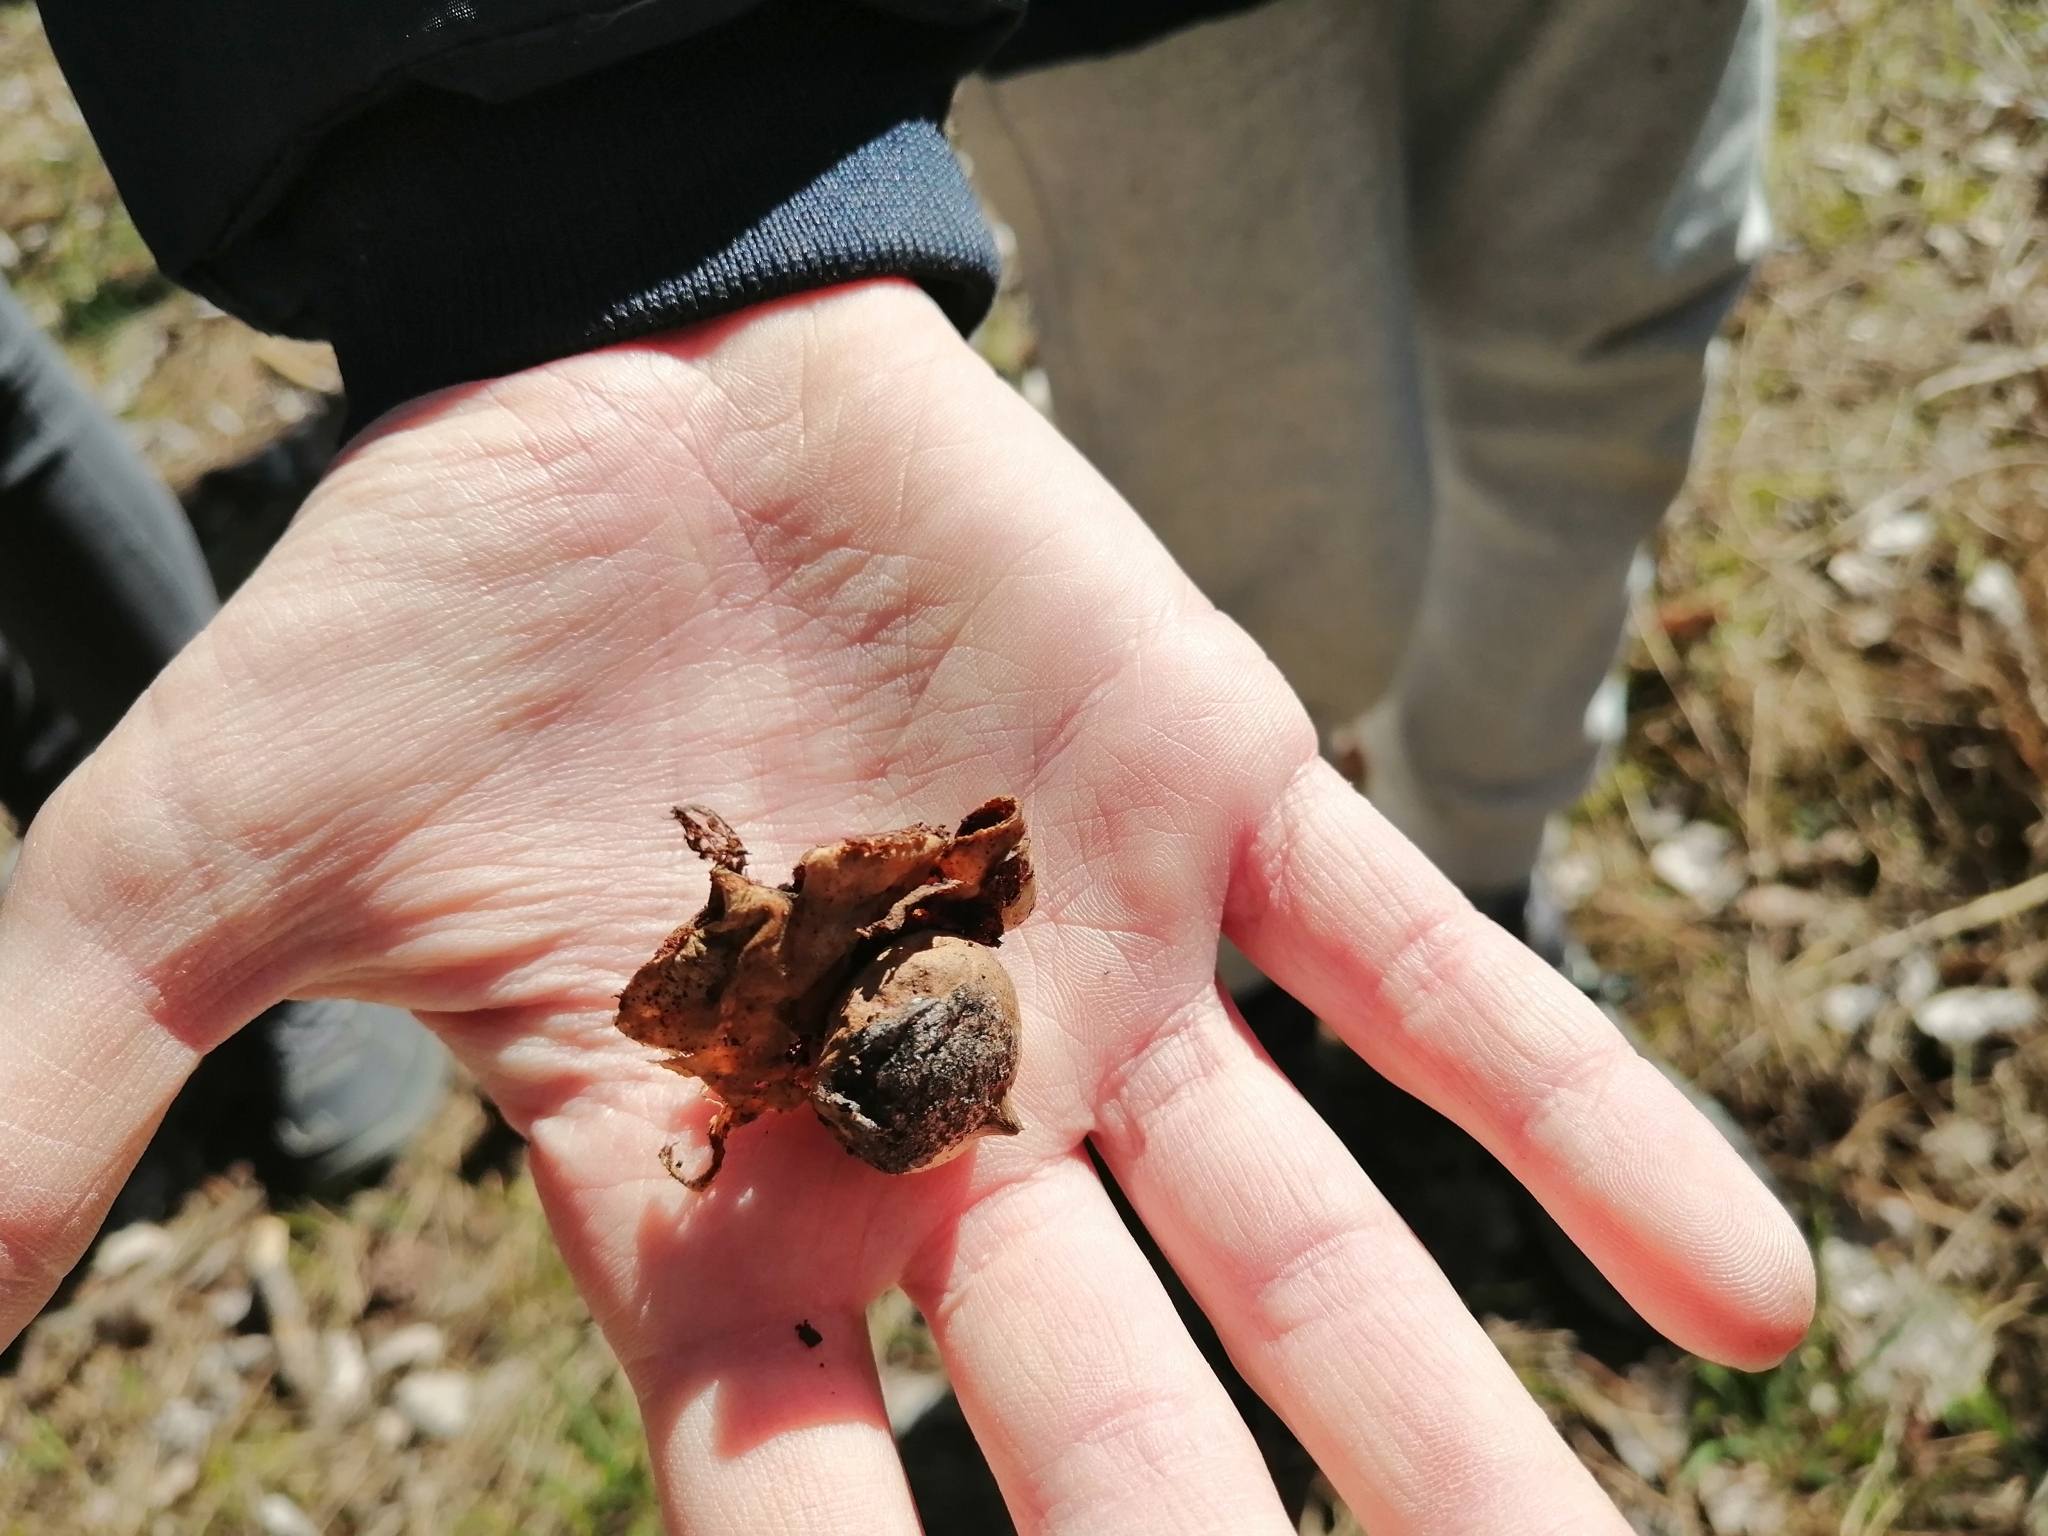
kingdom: Fungi
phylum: Basidiomycota
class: Agaricomycetes
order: Geastrales
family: Geastraceae
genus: Geastrum
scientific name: Geastrum saccatum
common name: Rounded earthstar
